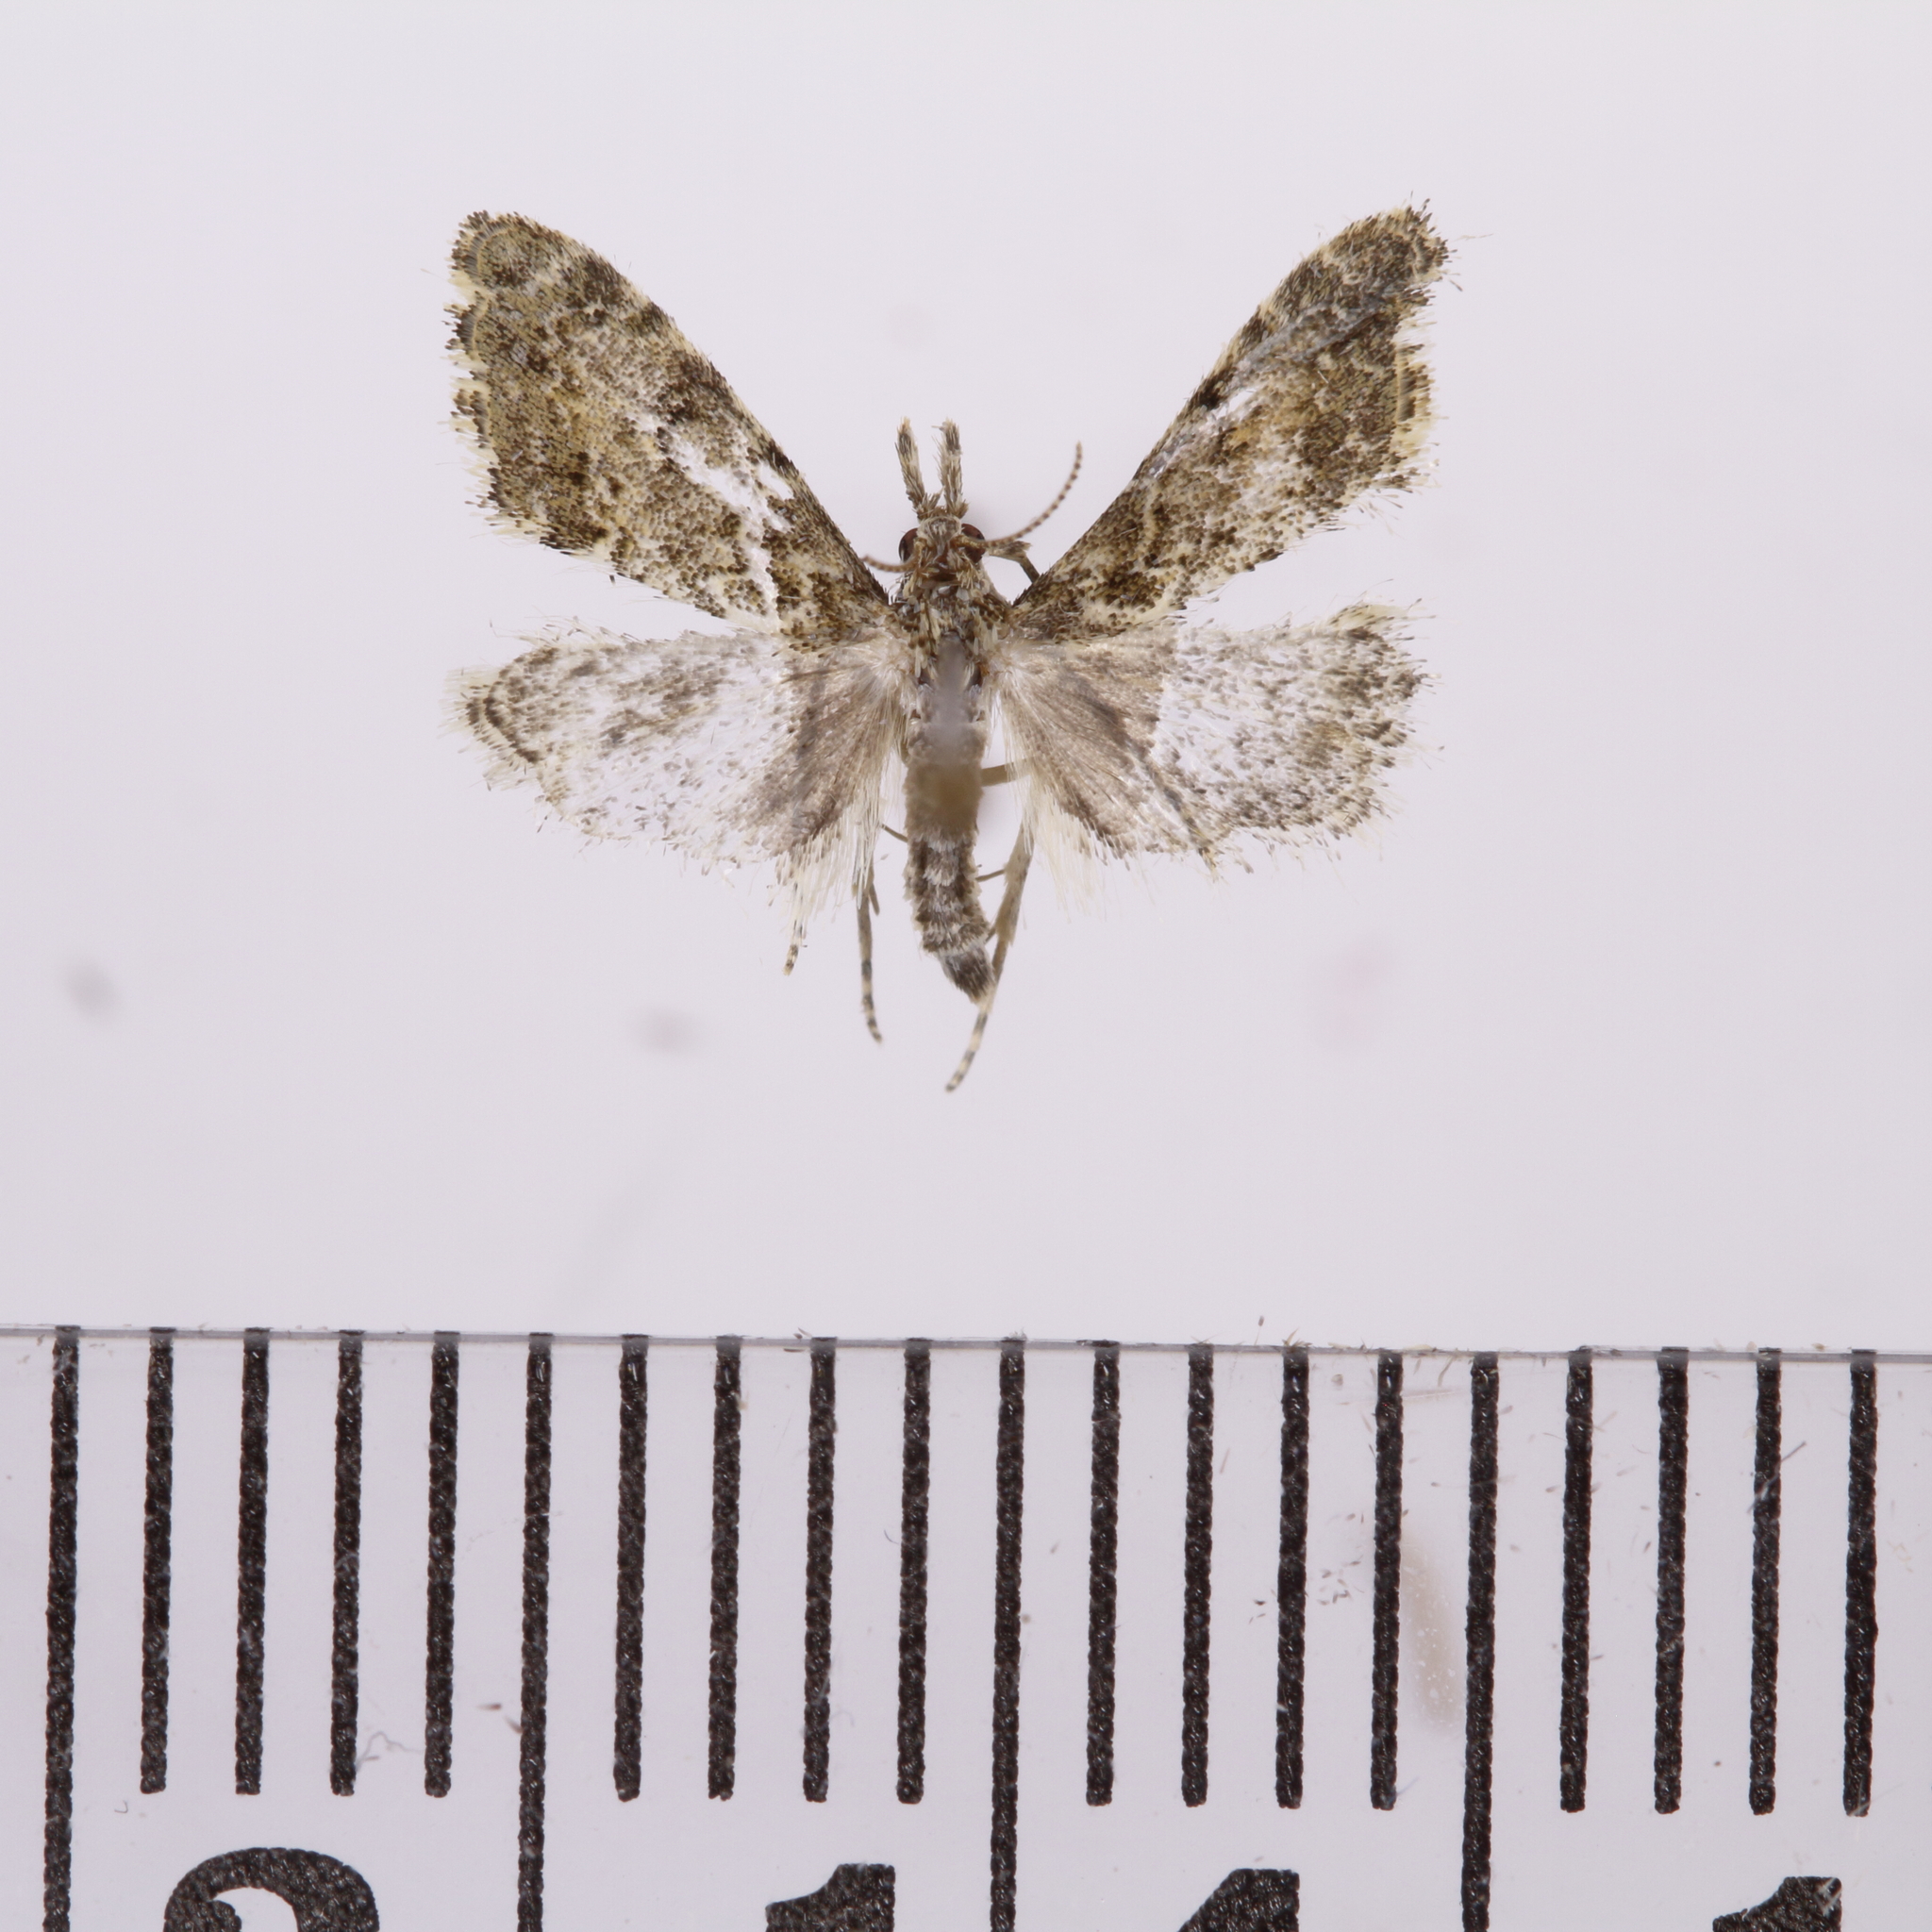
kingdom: Animalia
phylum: Arthropoda
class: Insecta
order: Lepidoptera
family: Crambidae
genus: Glaucocharis
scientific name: Glaucocharis elaina
